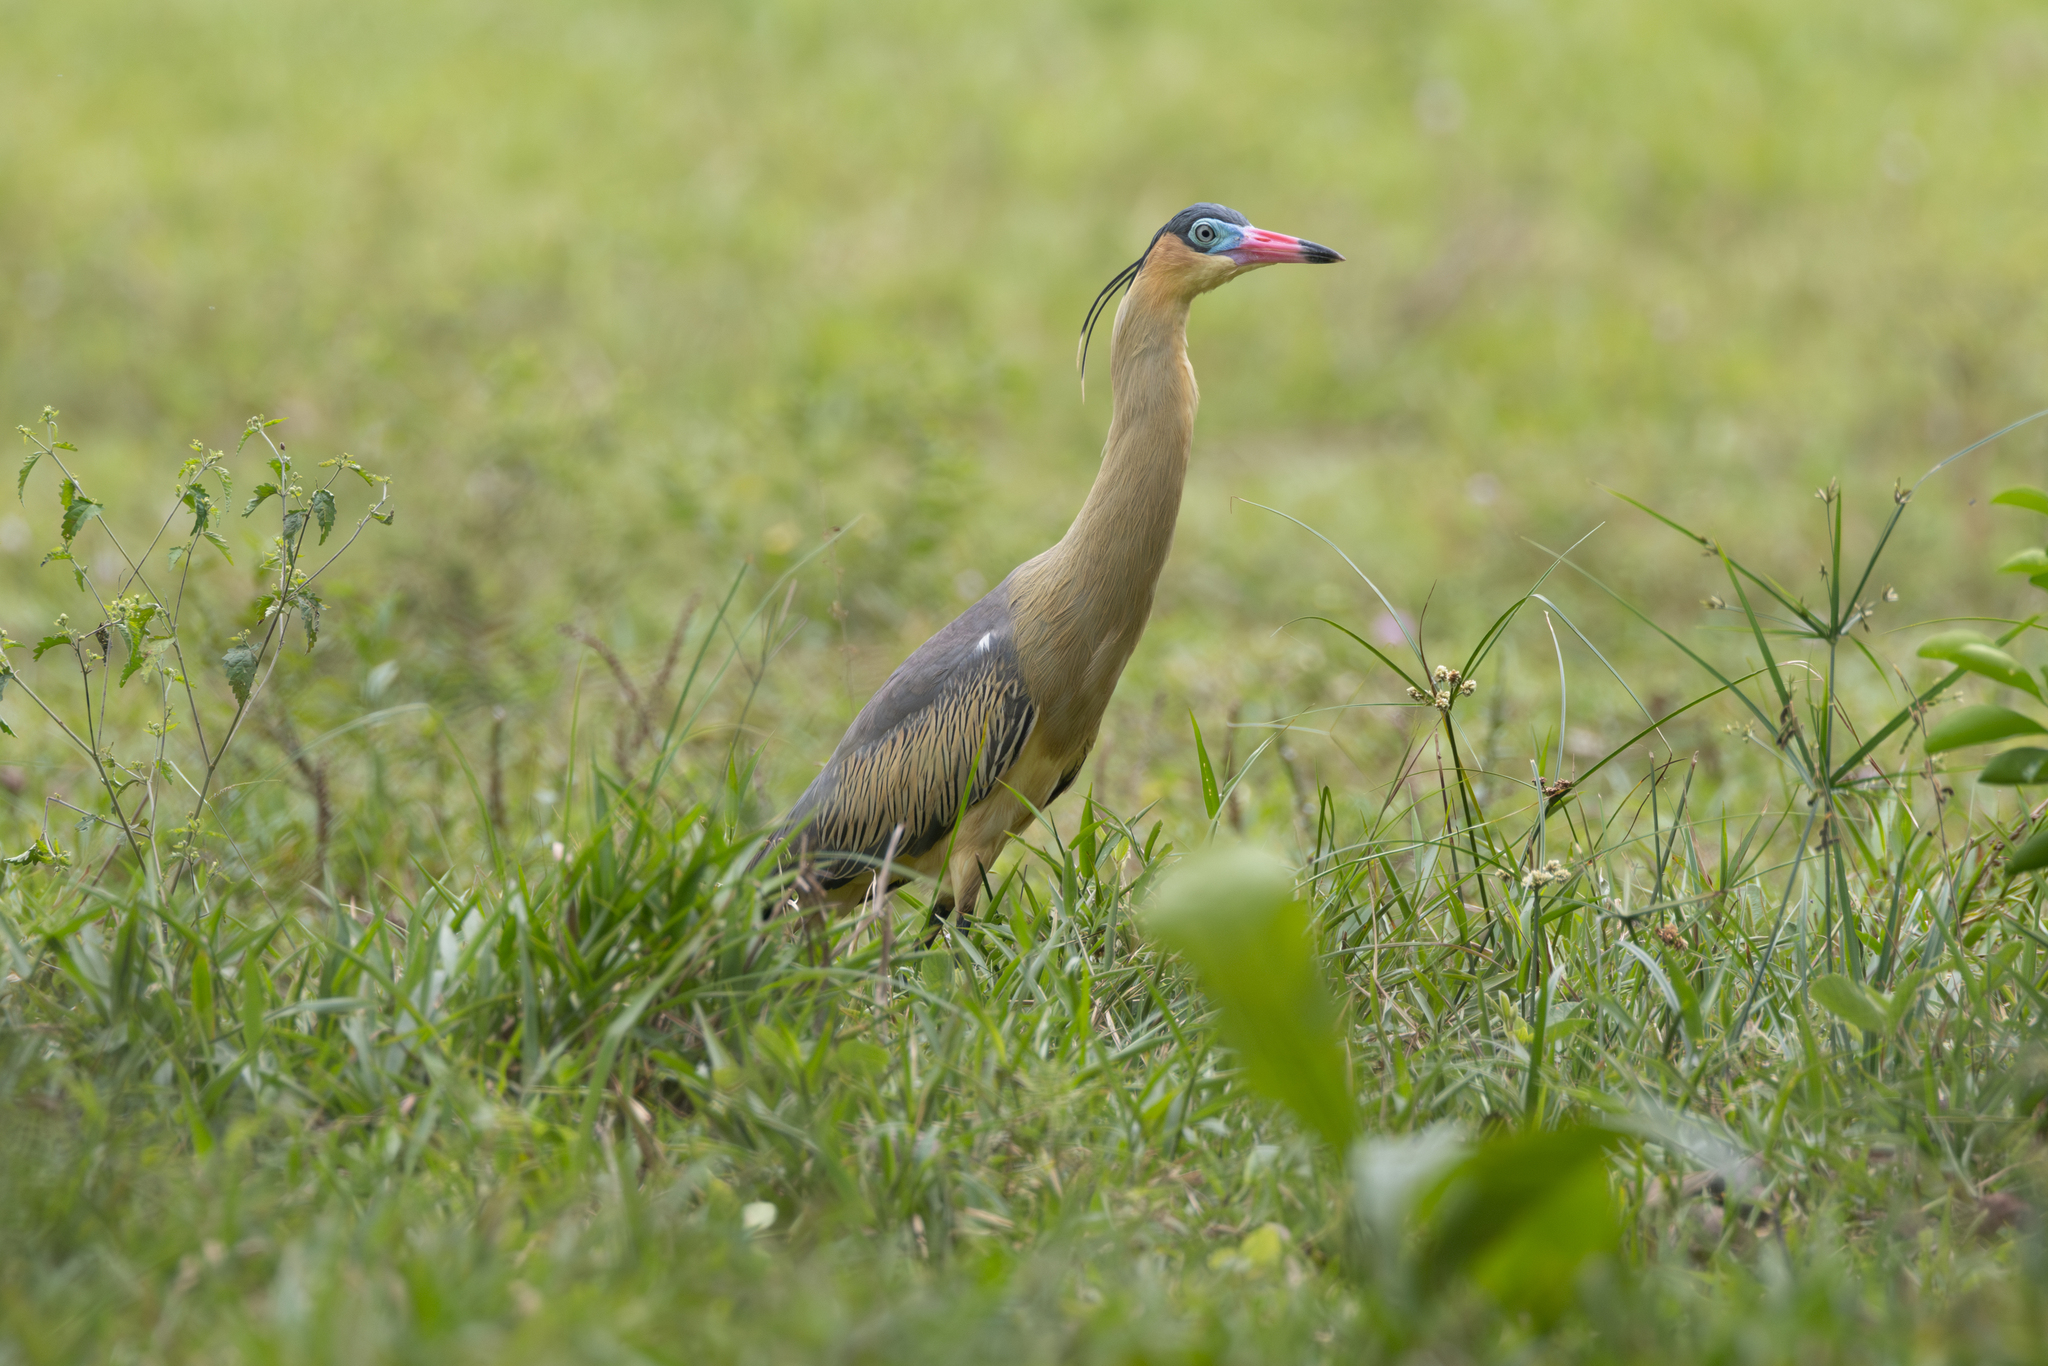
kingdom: Animalia
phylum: Chordata
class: Aves
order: Pelecaniformes
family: Ardeidae
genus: Syrigma
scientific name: Syrigma sibilatrix
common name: Whistling heron
